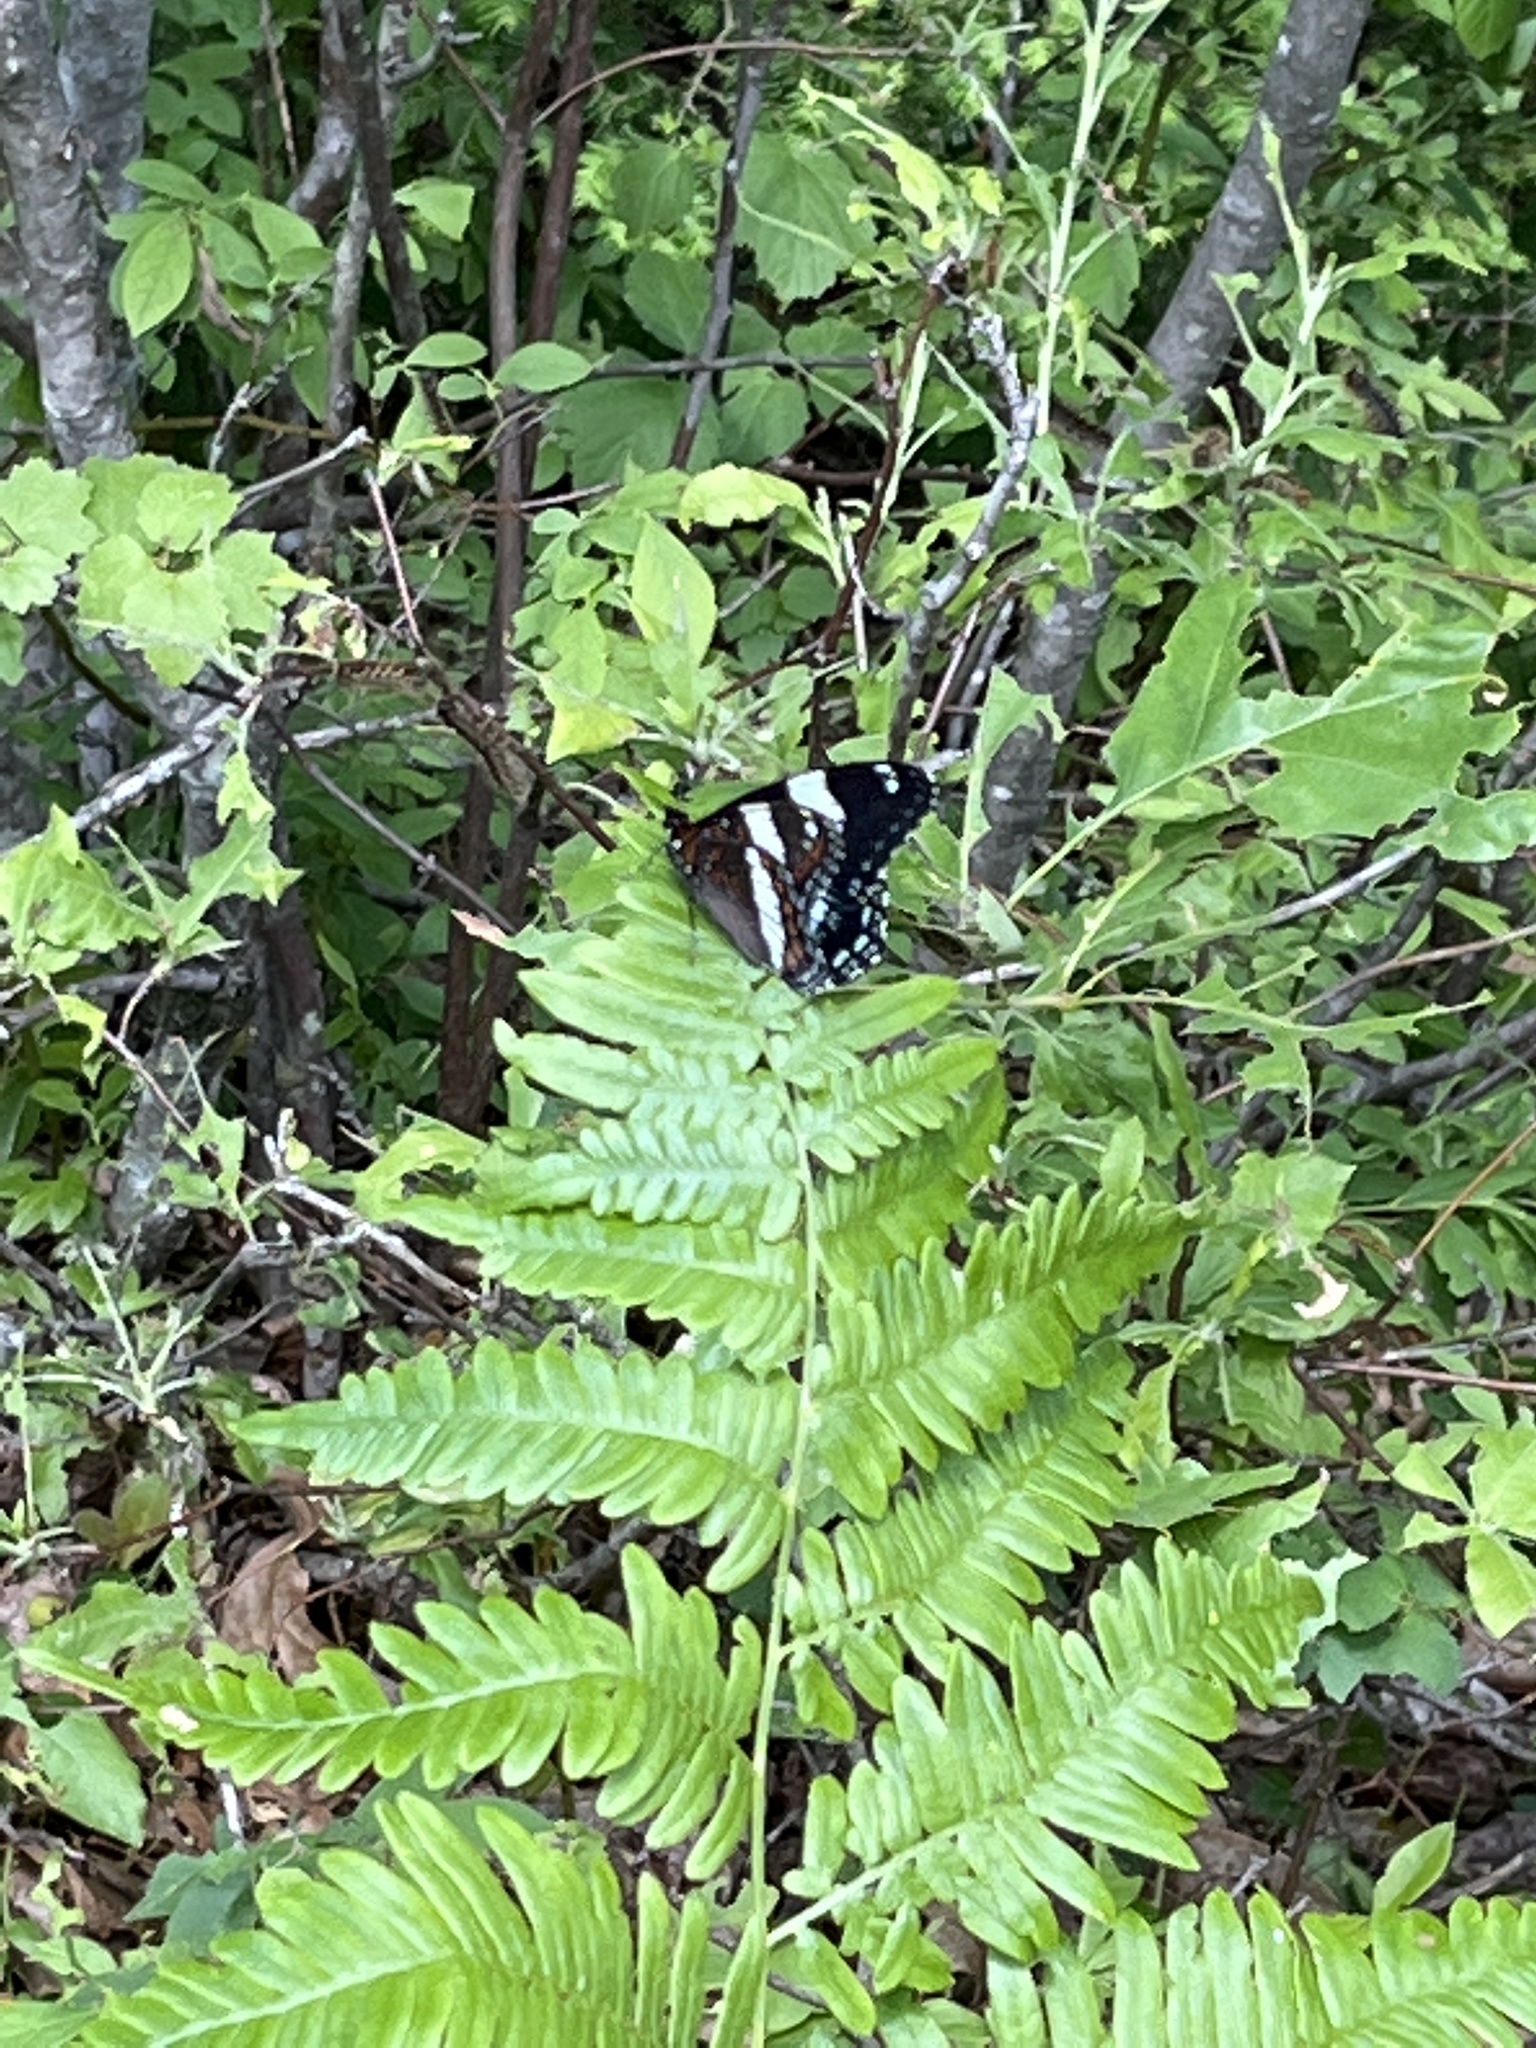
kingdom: Animalia
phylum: Arthropoda
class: Insecta
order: Lepidoptera
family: Nymphalidae
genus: Limenitis
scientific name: Limenitis arthemis
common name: Red-spotted admiral
